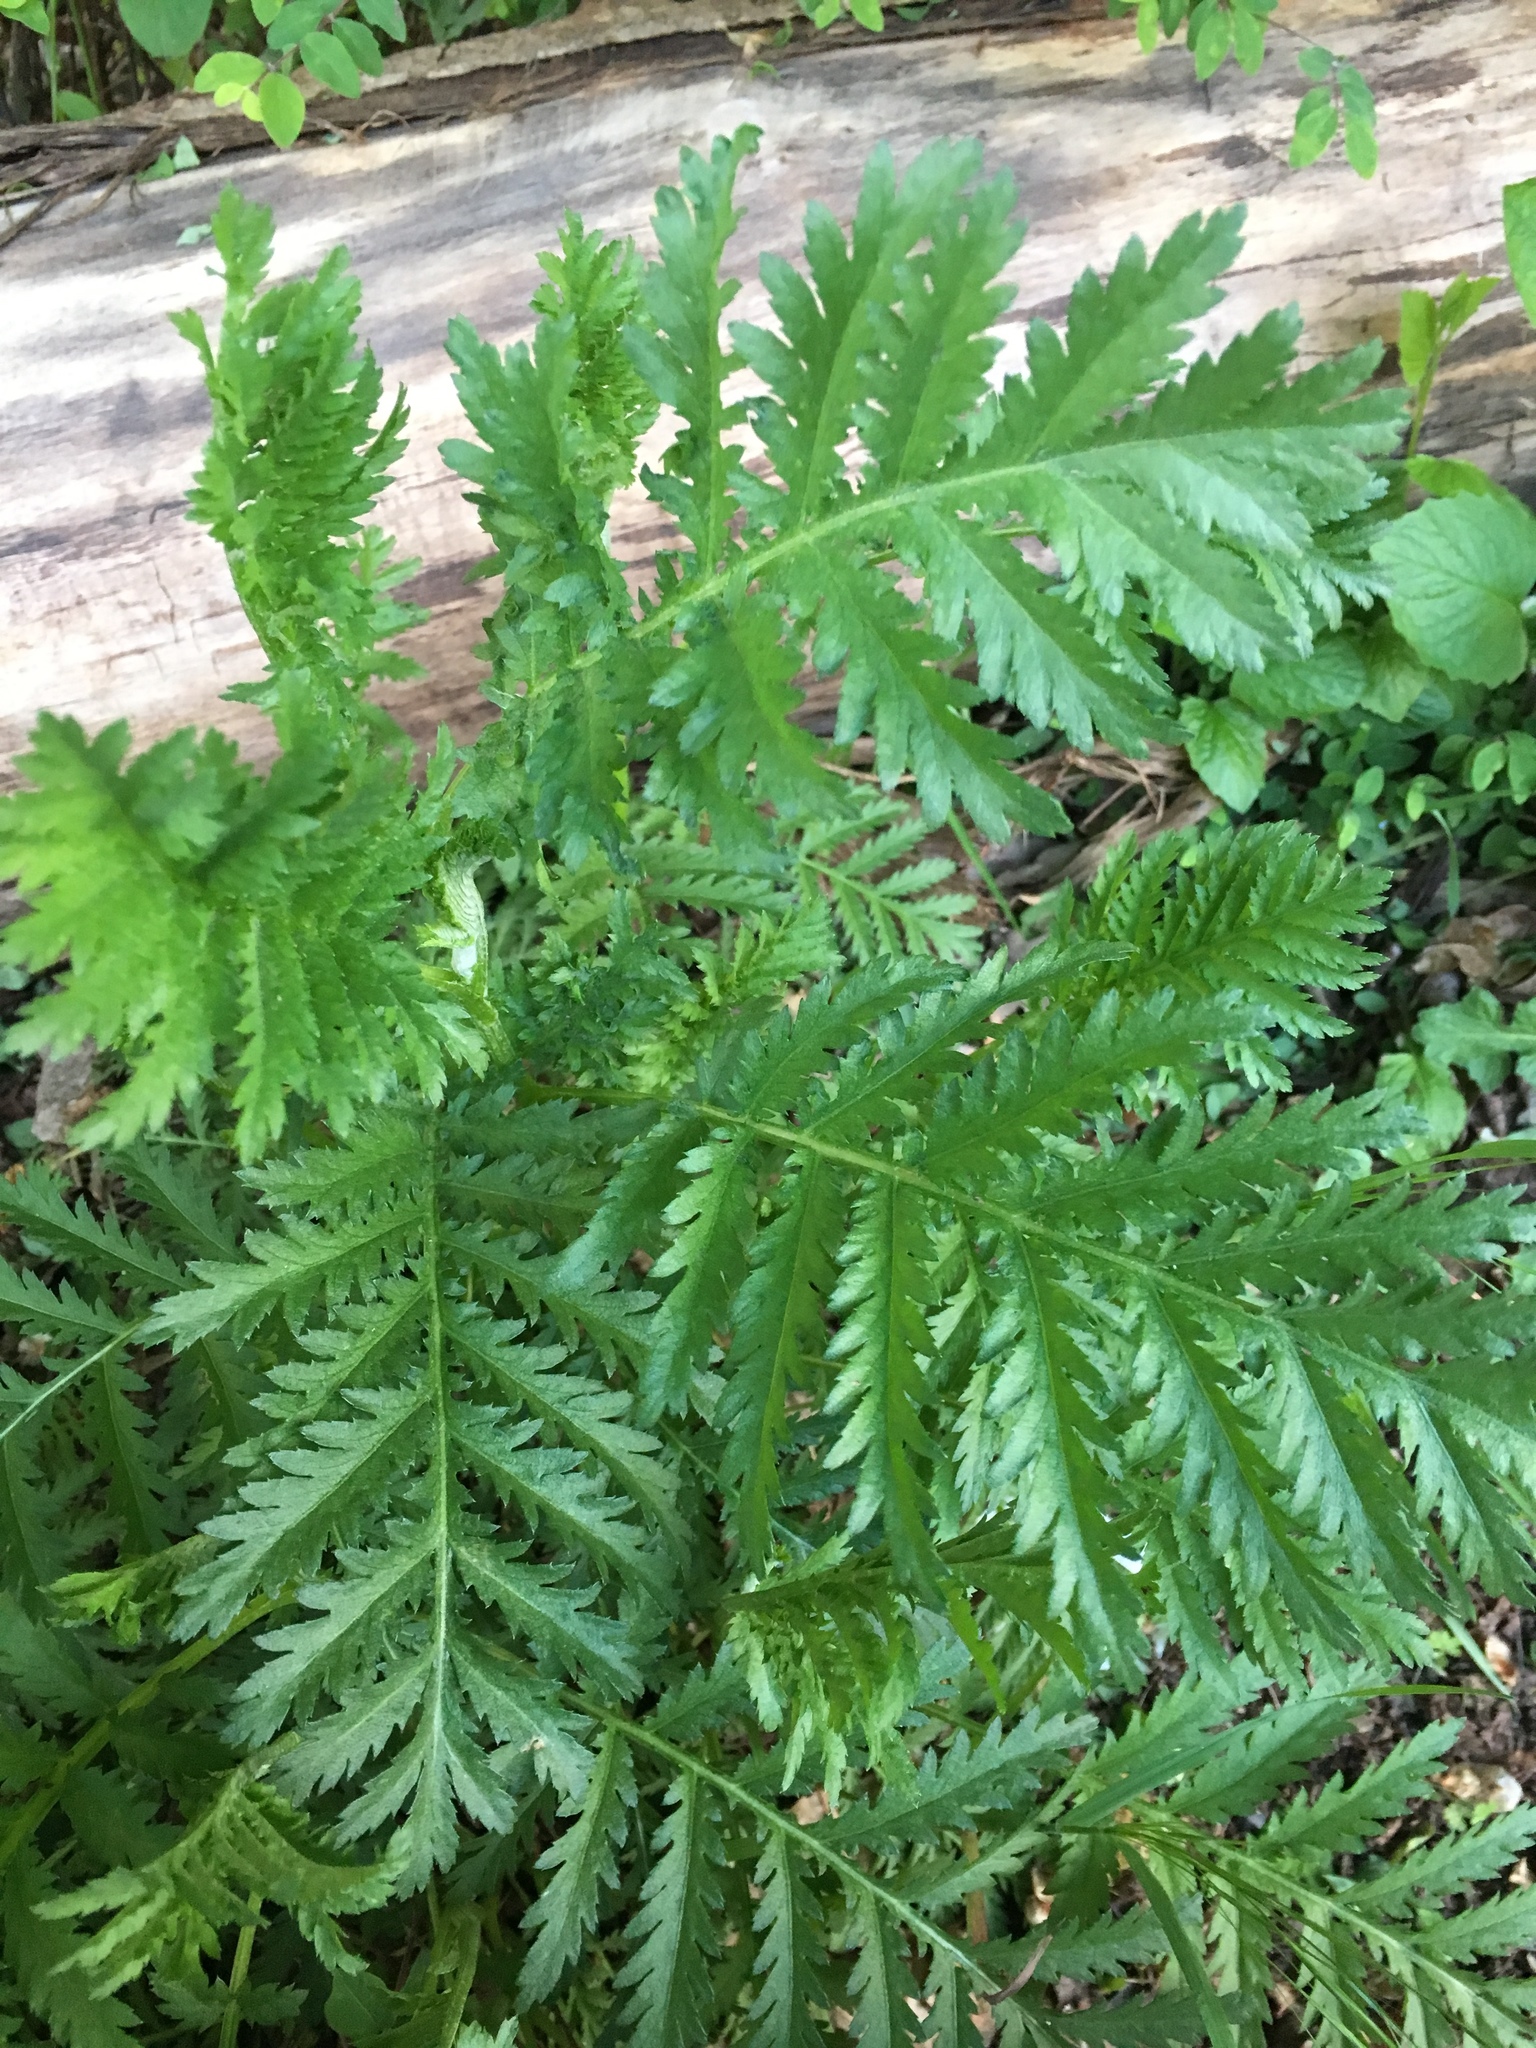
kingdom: Plantae
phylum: Tracheophyta
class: Magnoliopsida
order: Asterales
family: Asteraceae
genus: Tanacetum
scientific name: Tanacetum vulgare
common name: Common tansy
